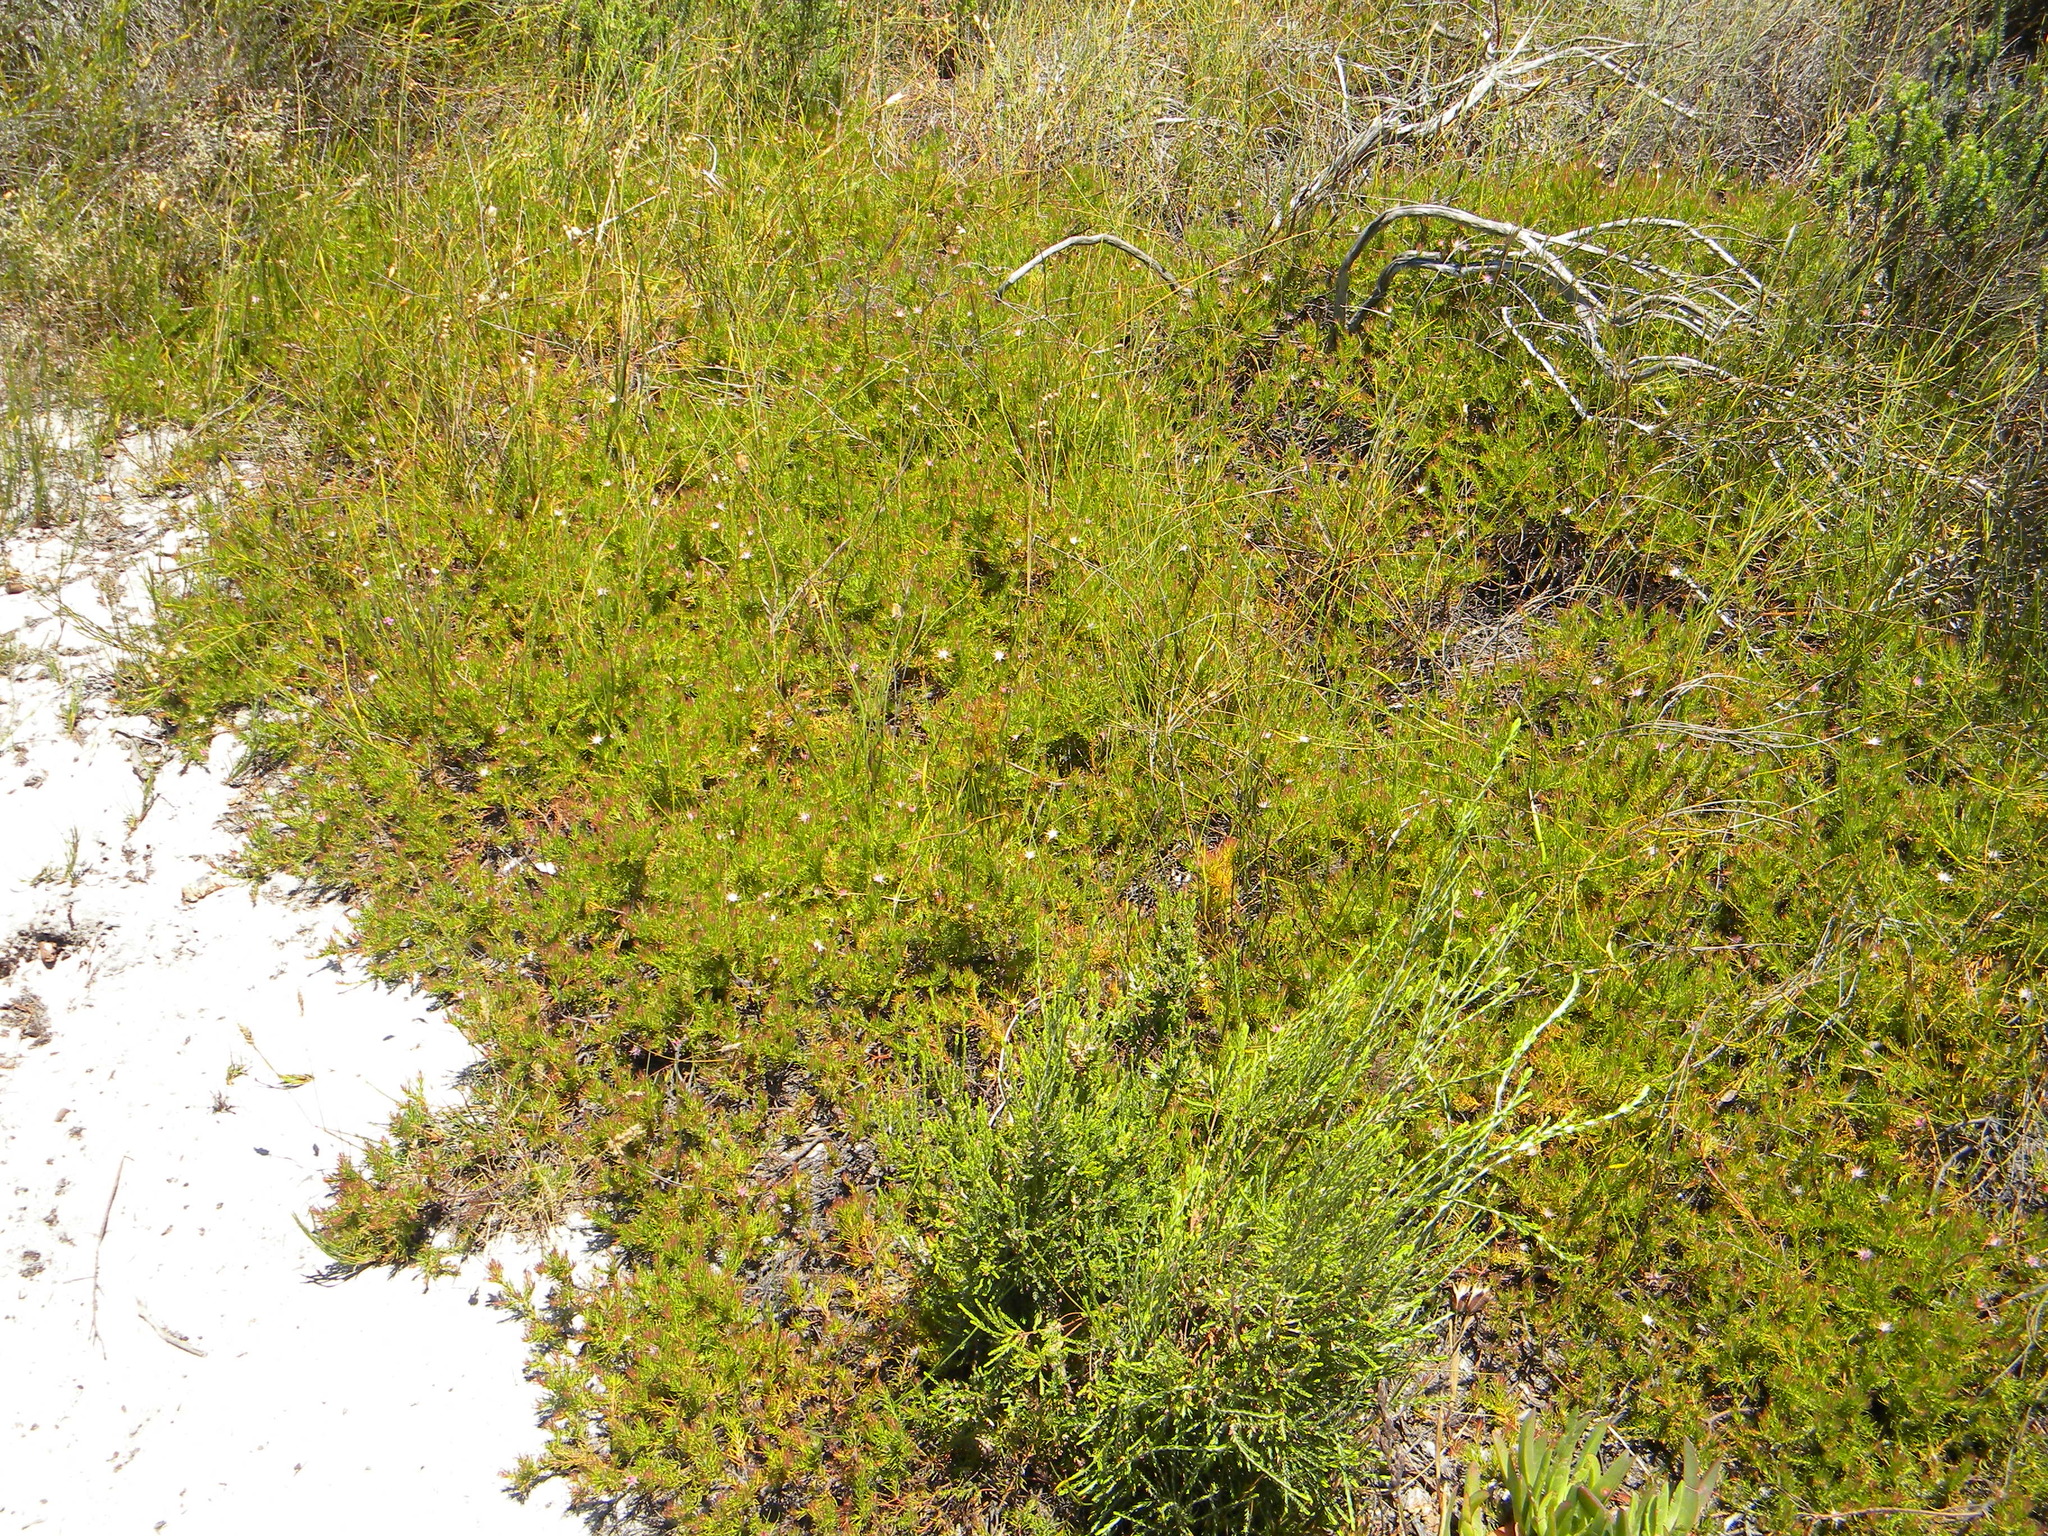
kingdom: Plantae
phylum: Tracheophyta
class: Magnoliopsida
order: Proteales
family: Proteaceae
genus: Diastella
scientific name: Diastella proteoides
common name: Flats silkypuff
